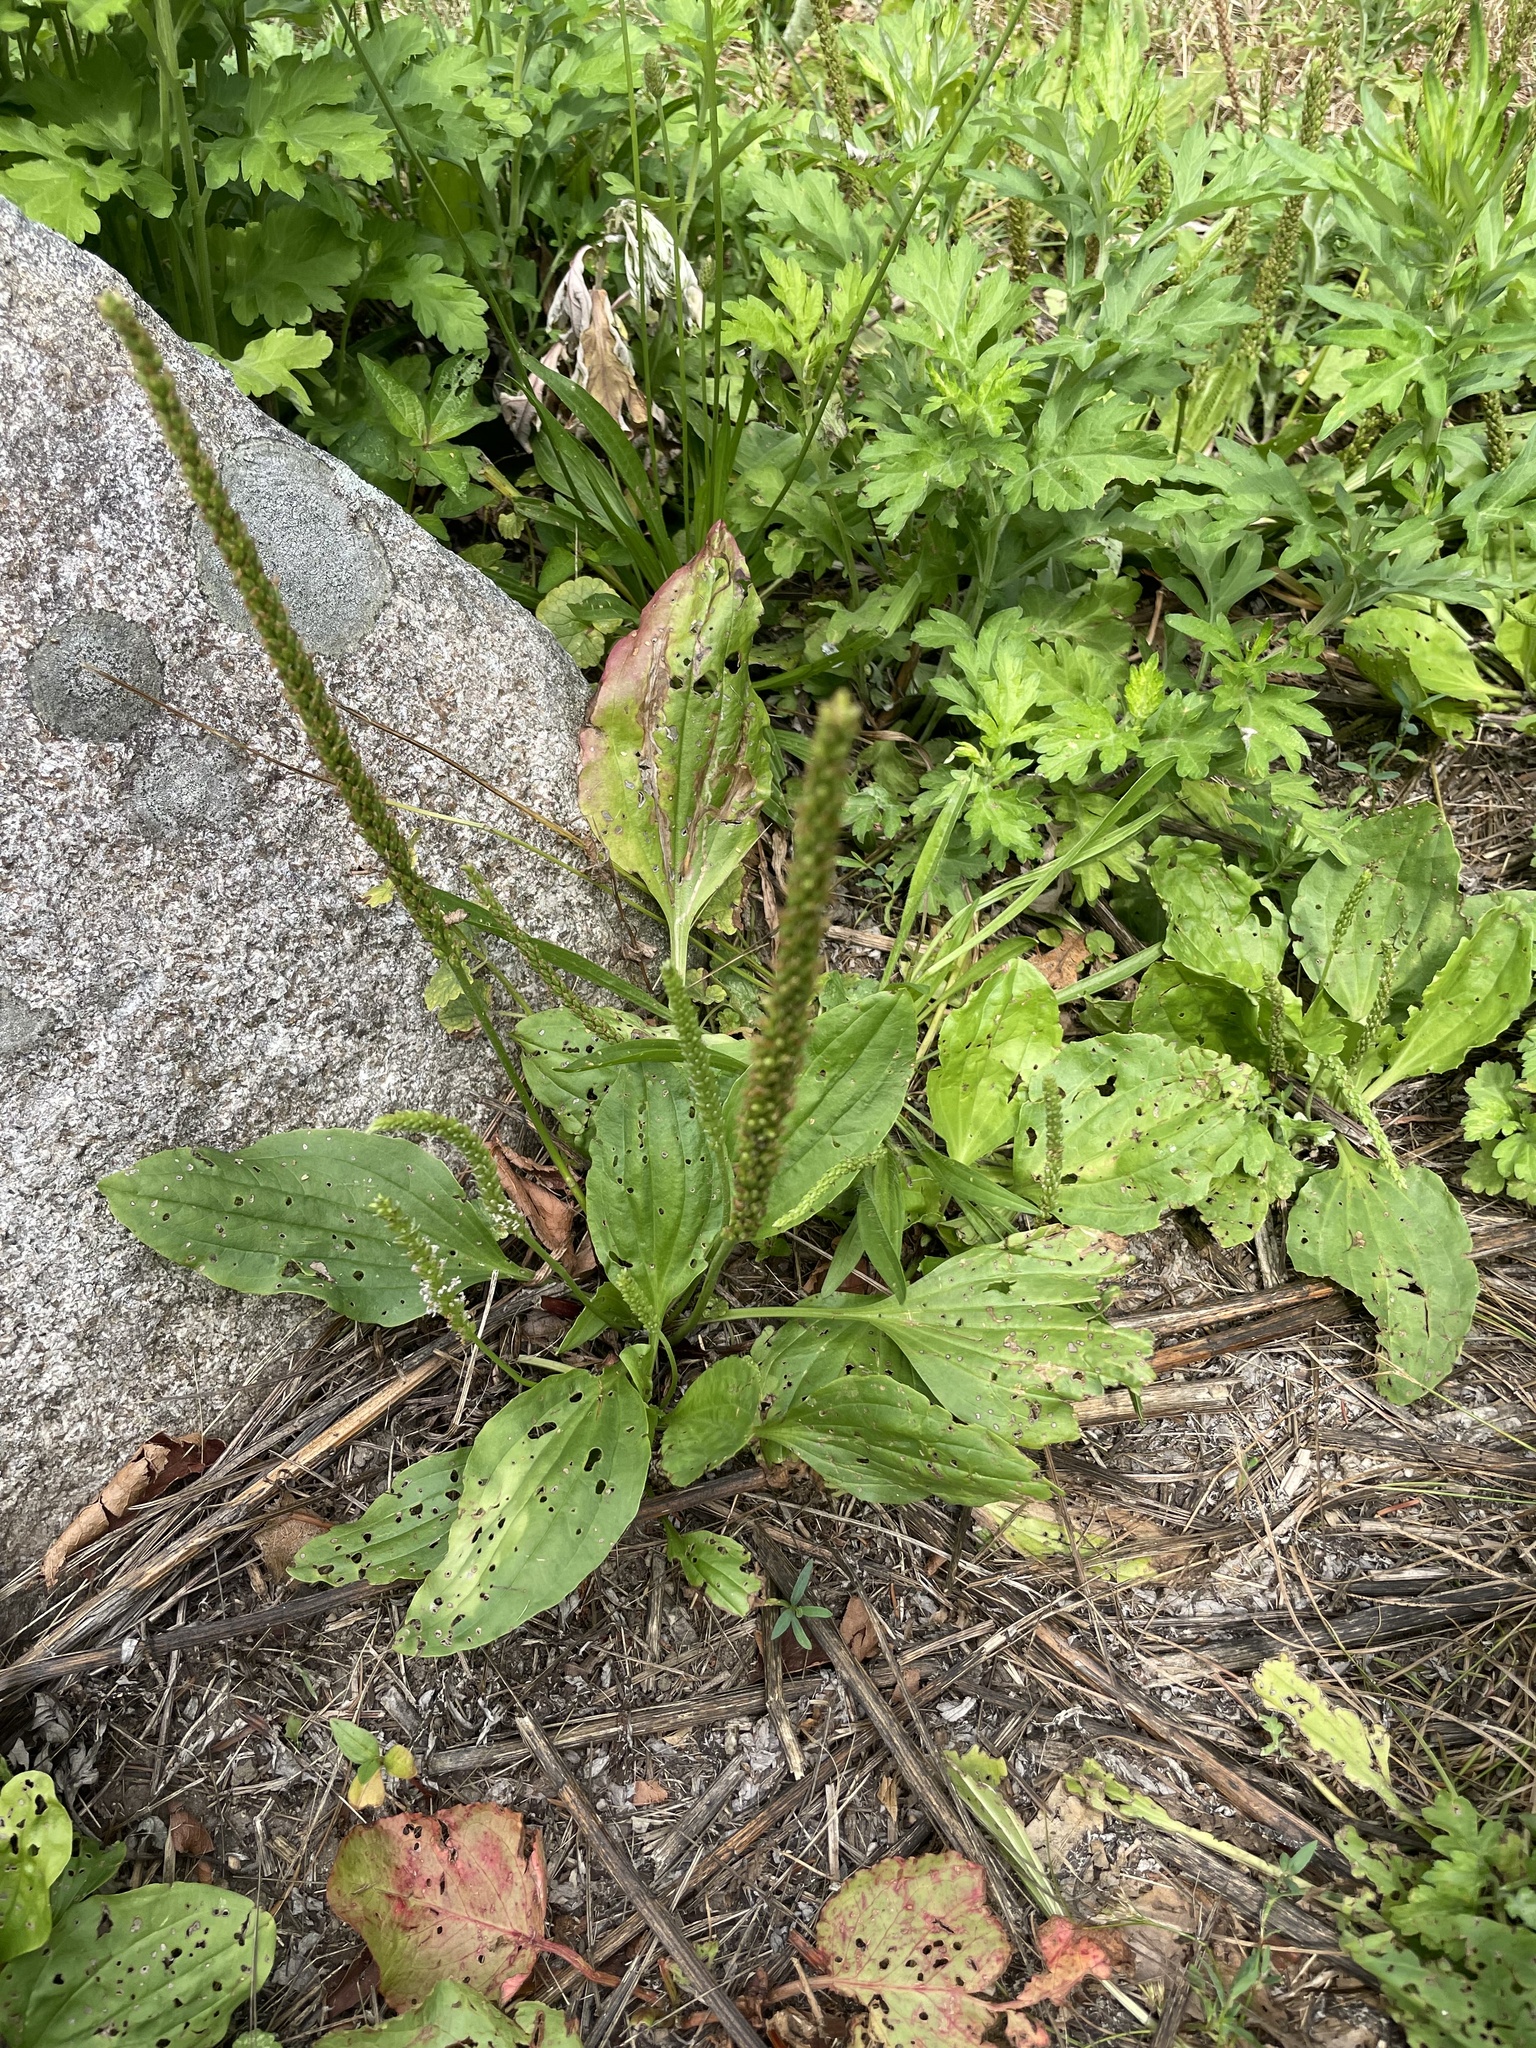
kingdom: Plantae
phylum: Tracheophyta
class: Magnoliopsida
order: Lamiales
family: Plantaginaceae
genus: Plantago
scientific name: Plantago major
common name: Common plantain
